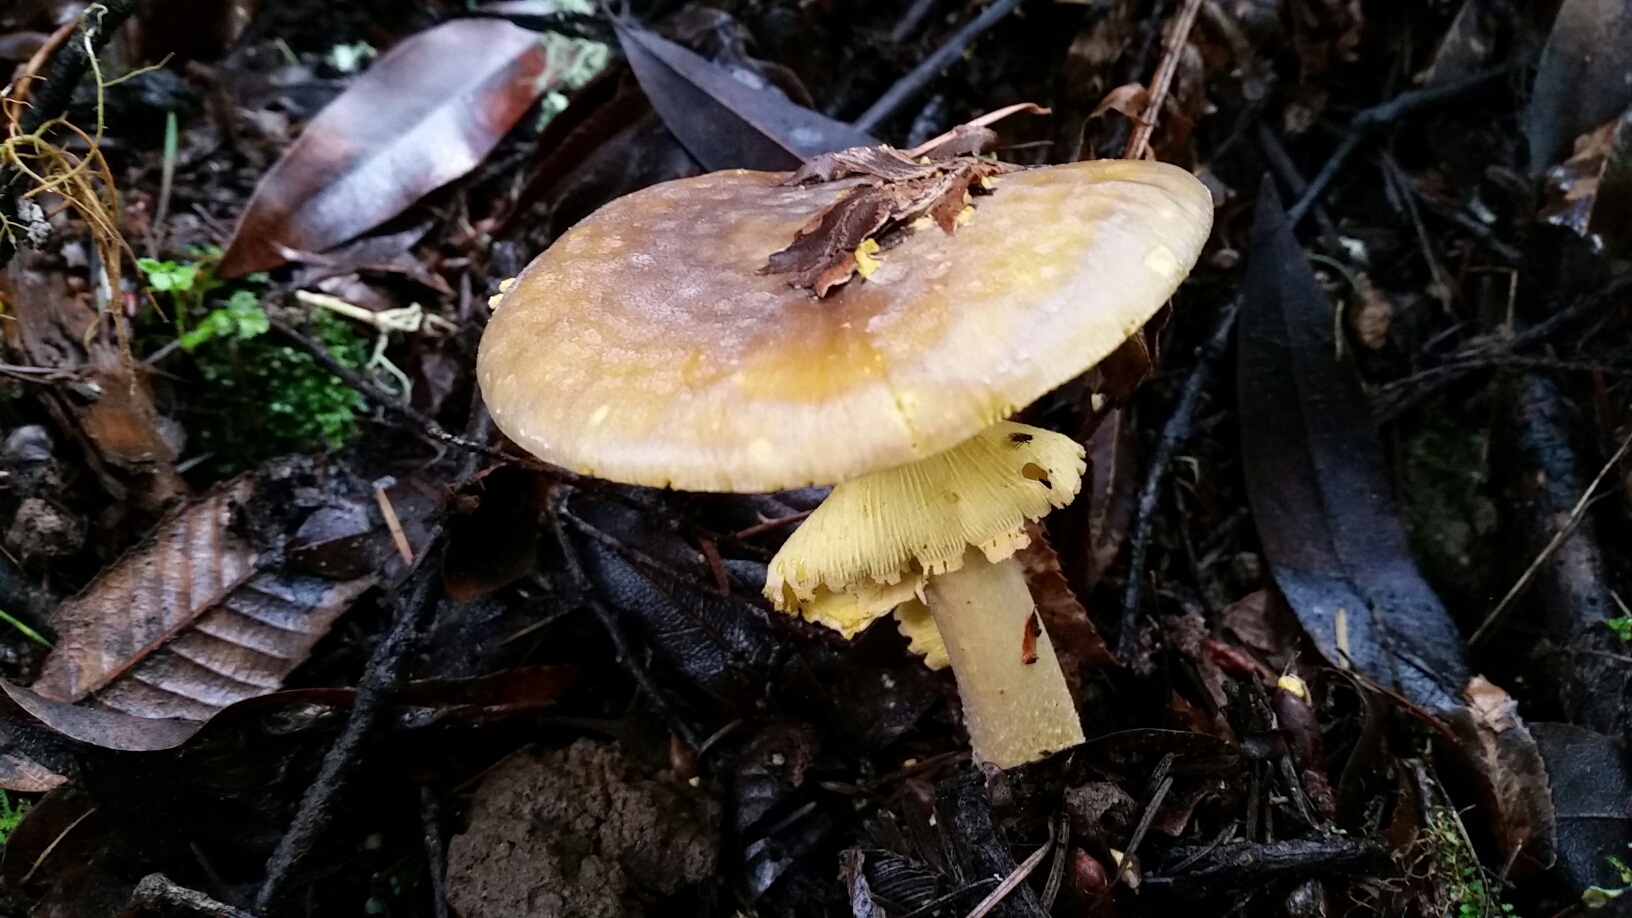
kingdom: Fungi
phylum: Basidiomycota
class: Agaricomycetes
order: Agaricales
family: Amanitaceae
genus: Amanita
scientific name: Amanita augusta
